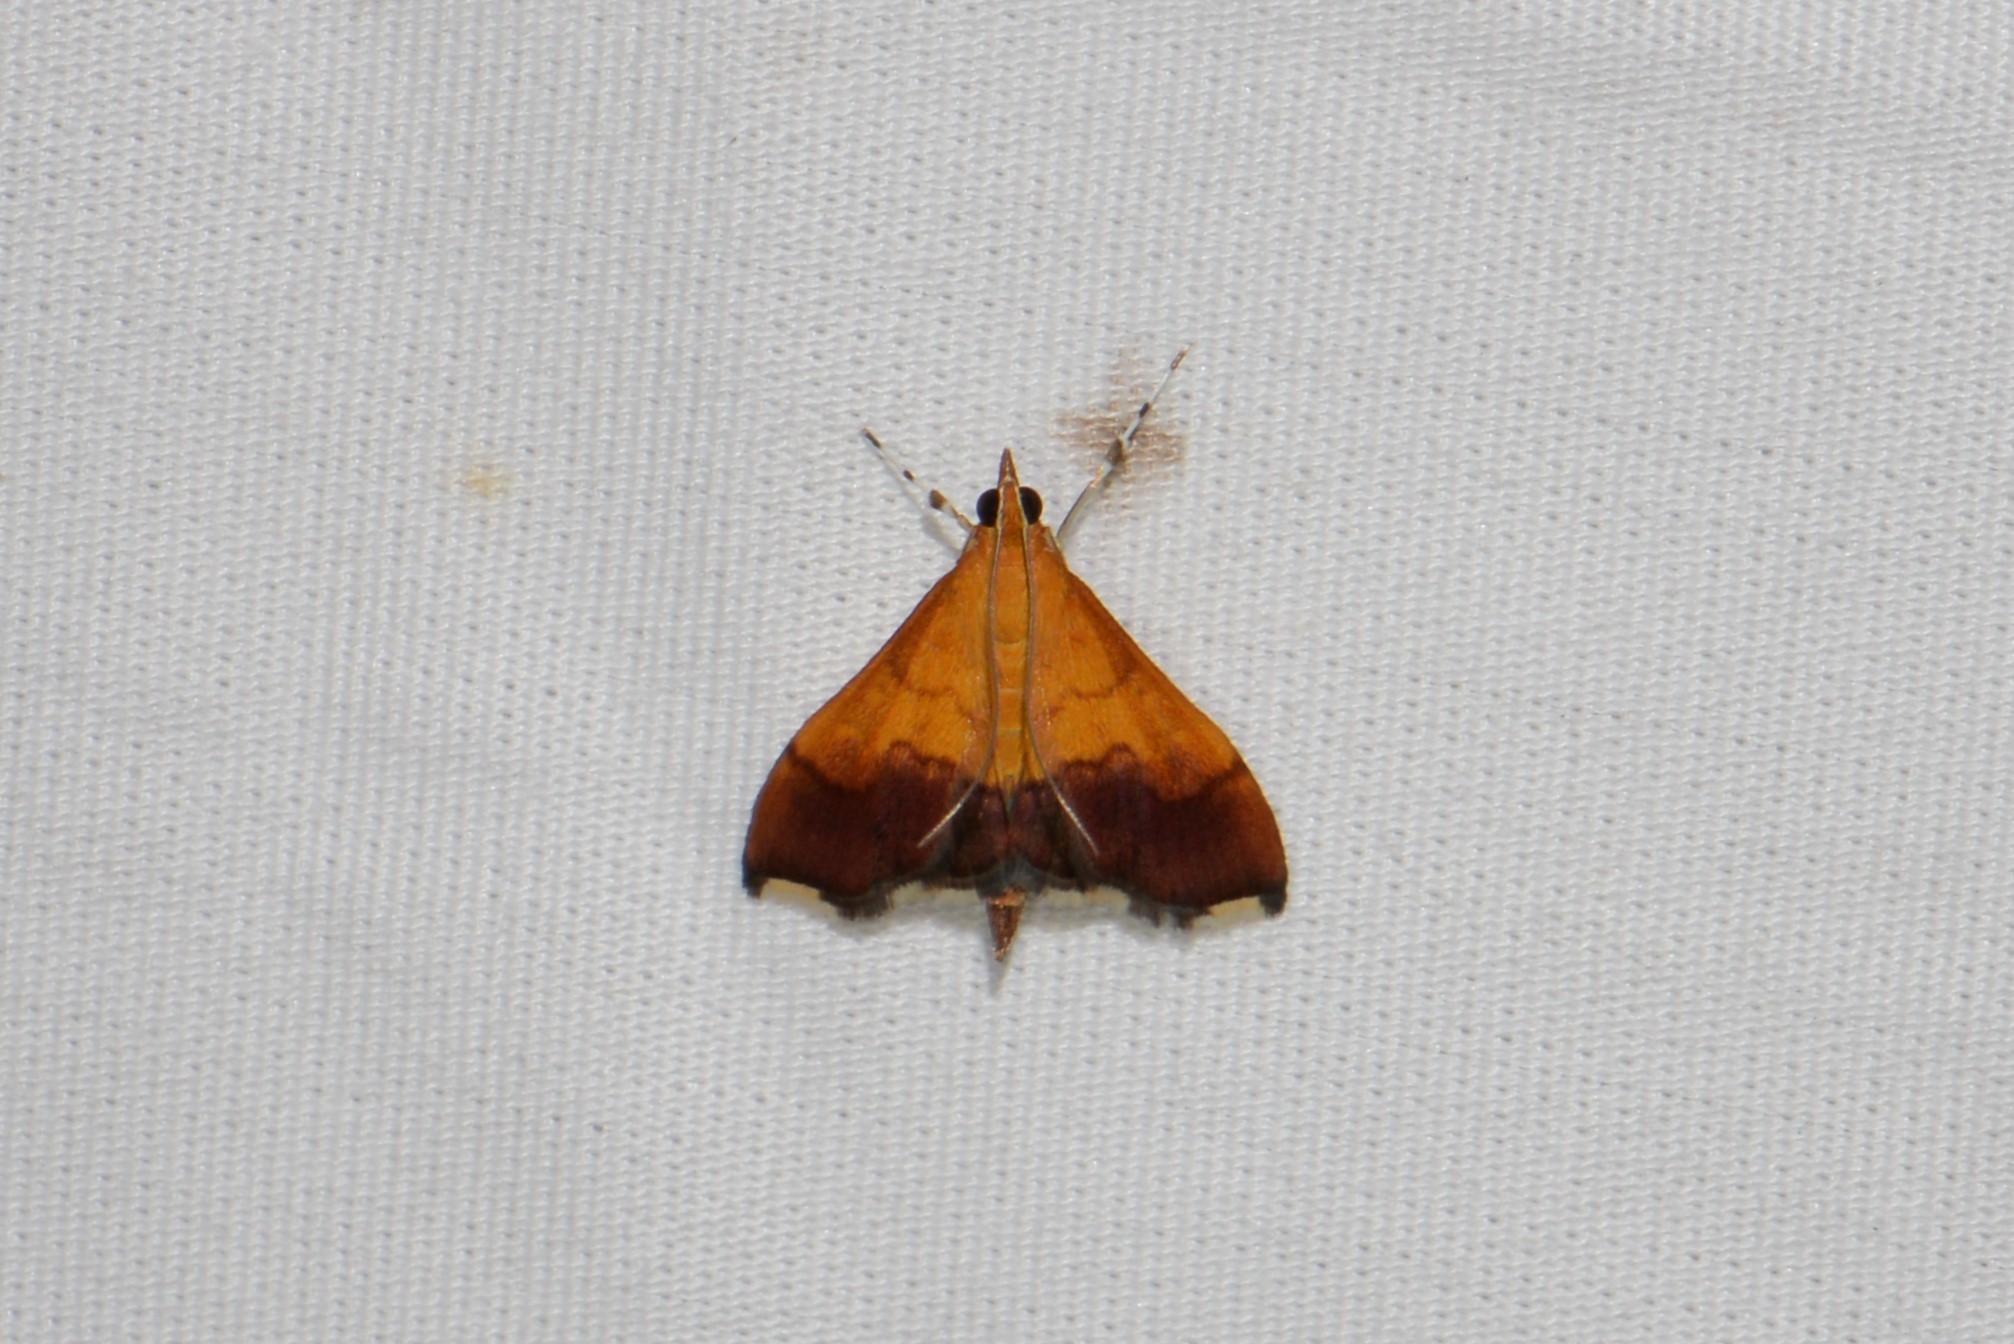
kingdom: Animalia
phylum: Arthropoda
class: Insecta
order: Lepidoptera
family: Crambidae
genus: Pyrausta
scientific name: Pyrausta bicoloralis
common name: Bicolored pyrausta moth
